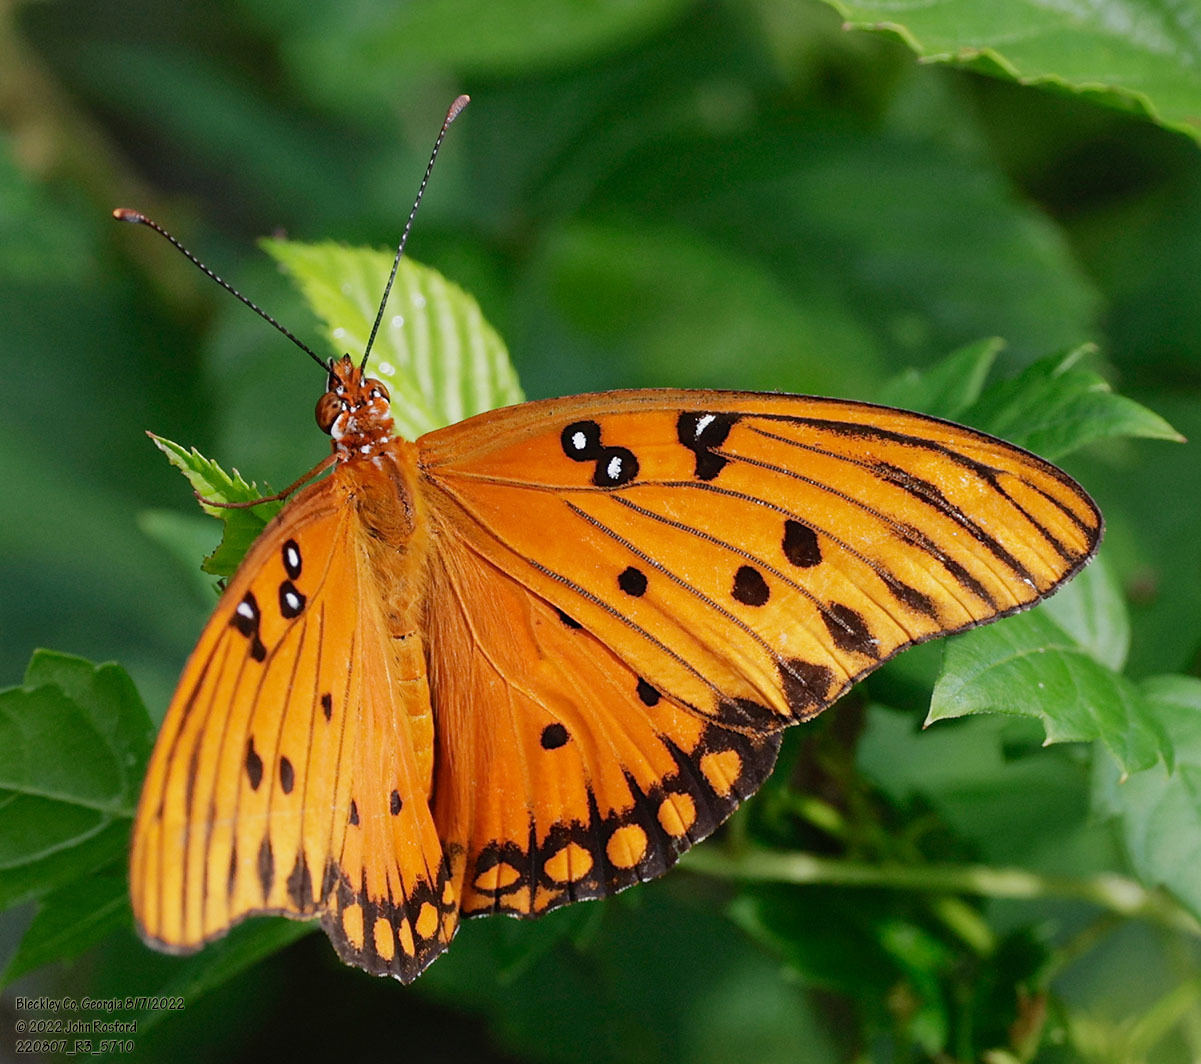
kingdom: Animalia
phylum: Arthropoda
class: Insecta
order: Lepidoptera
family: Nymphalidae
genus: Dione
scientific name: Dione vanillae
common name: Gulf fritillary
